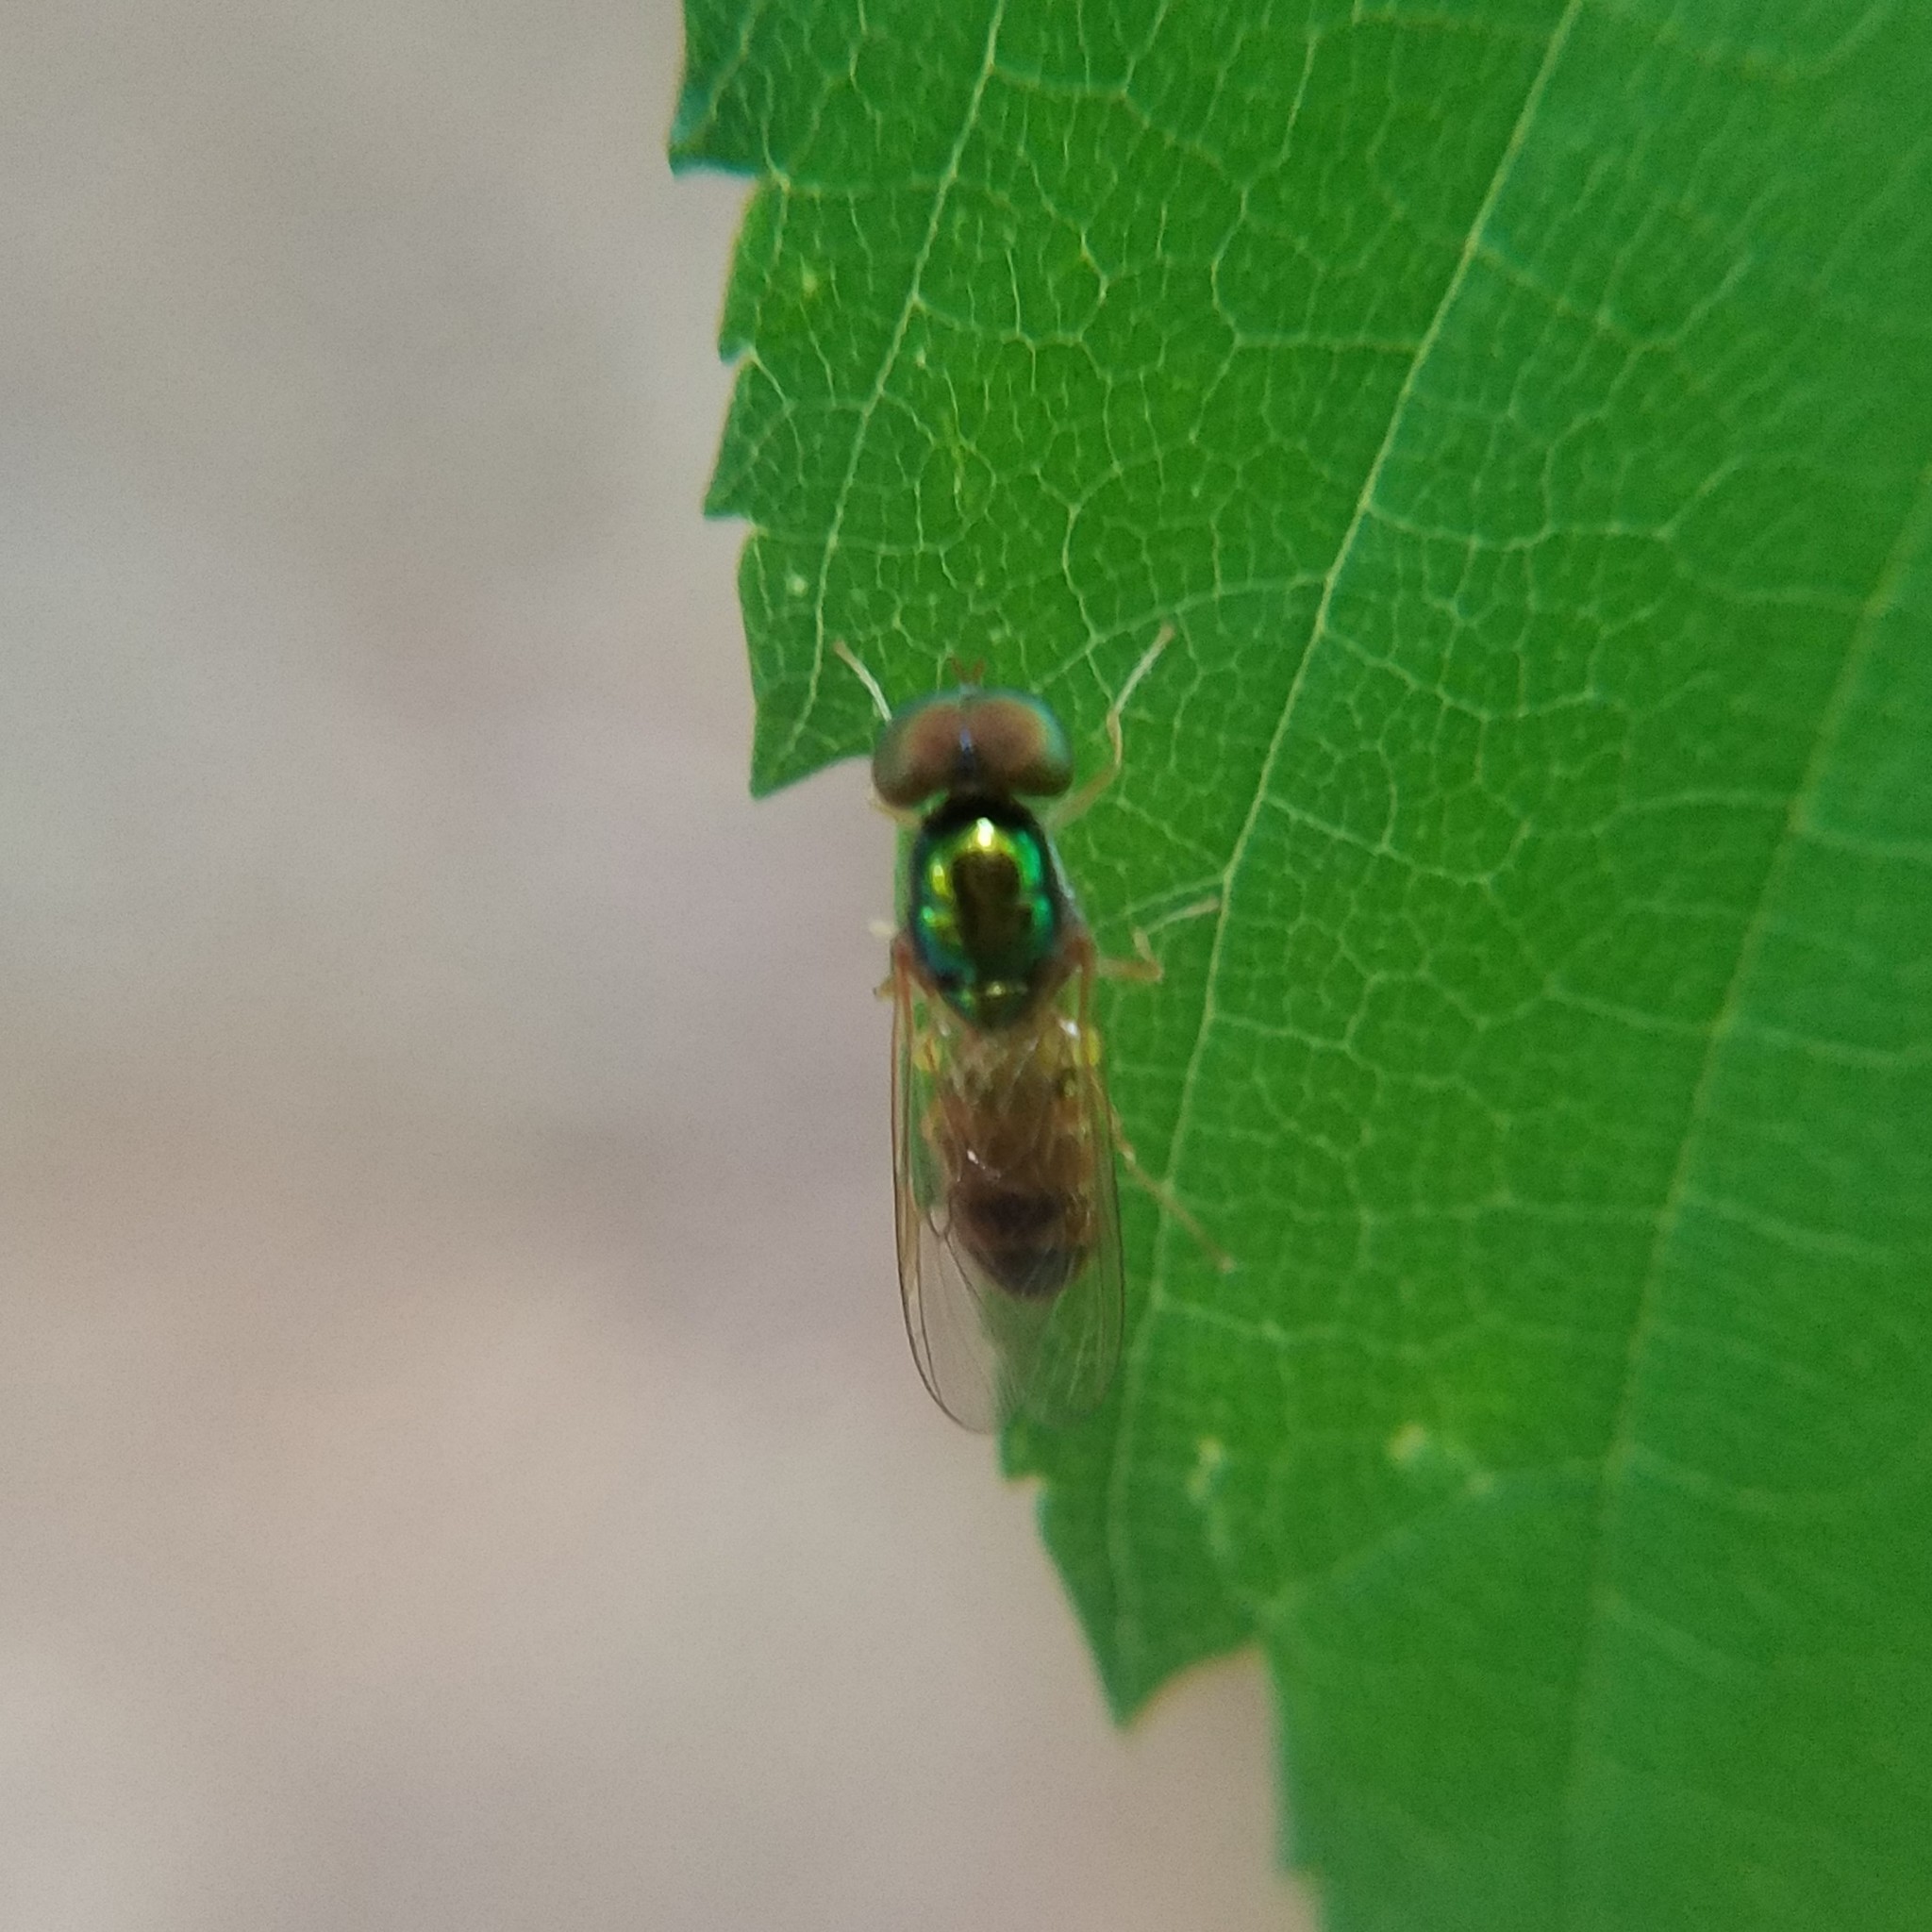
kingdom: Animalia
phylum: Arthropoda
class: Insecta
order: Diptera
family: Stratiomyidae
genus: Cephalochrysa
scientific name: Cephalochrysa canadensis
